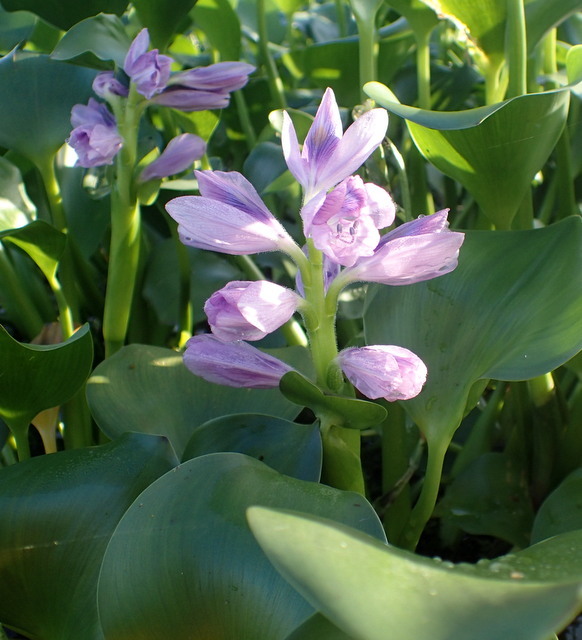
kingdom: Plantae
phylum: Tracheophyta
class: Liliopsida
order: Commelinales
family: Pontederiaceae
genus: Pontederia
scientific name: Pontederia crassipes
